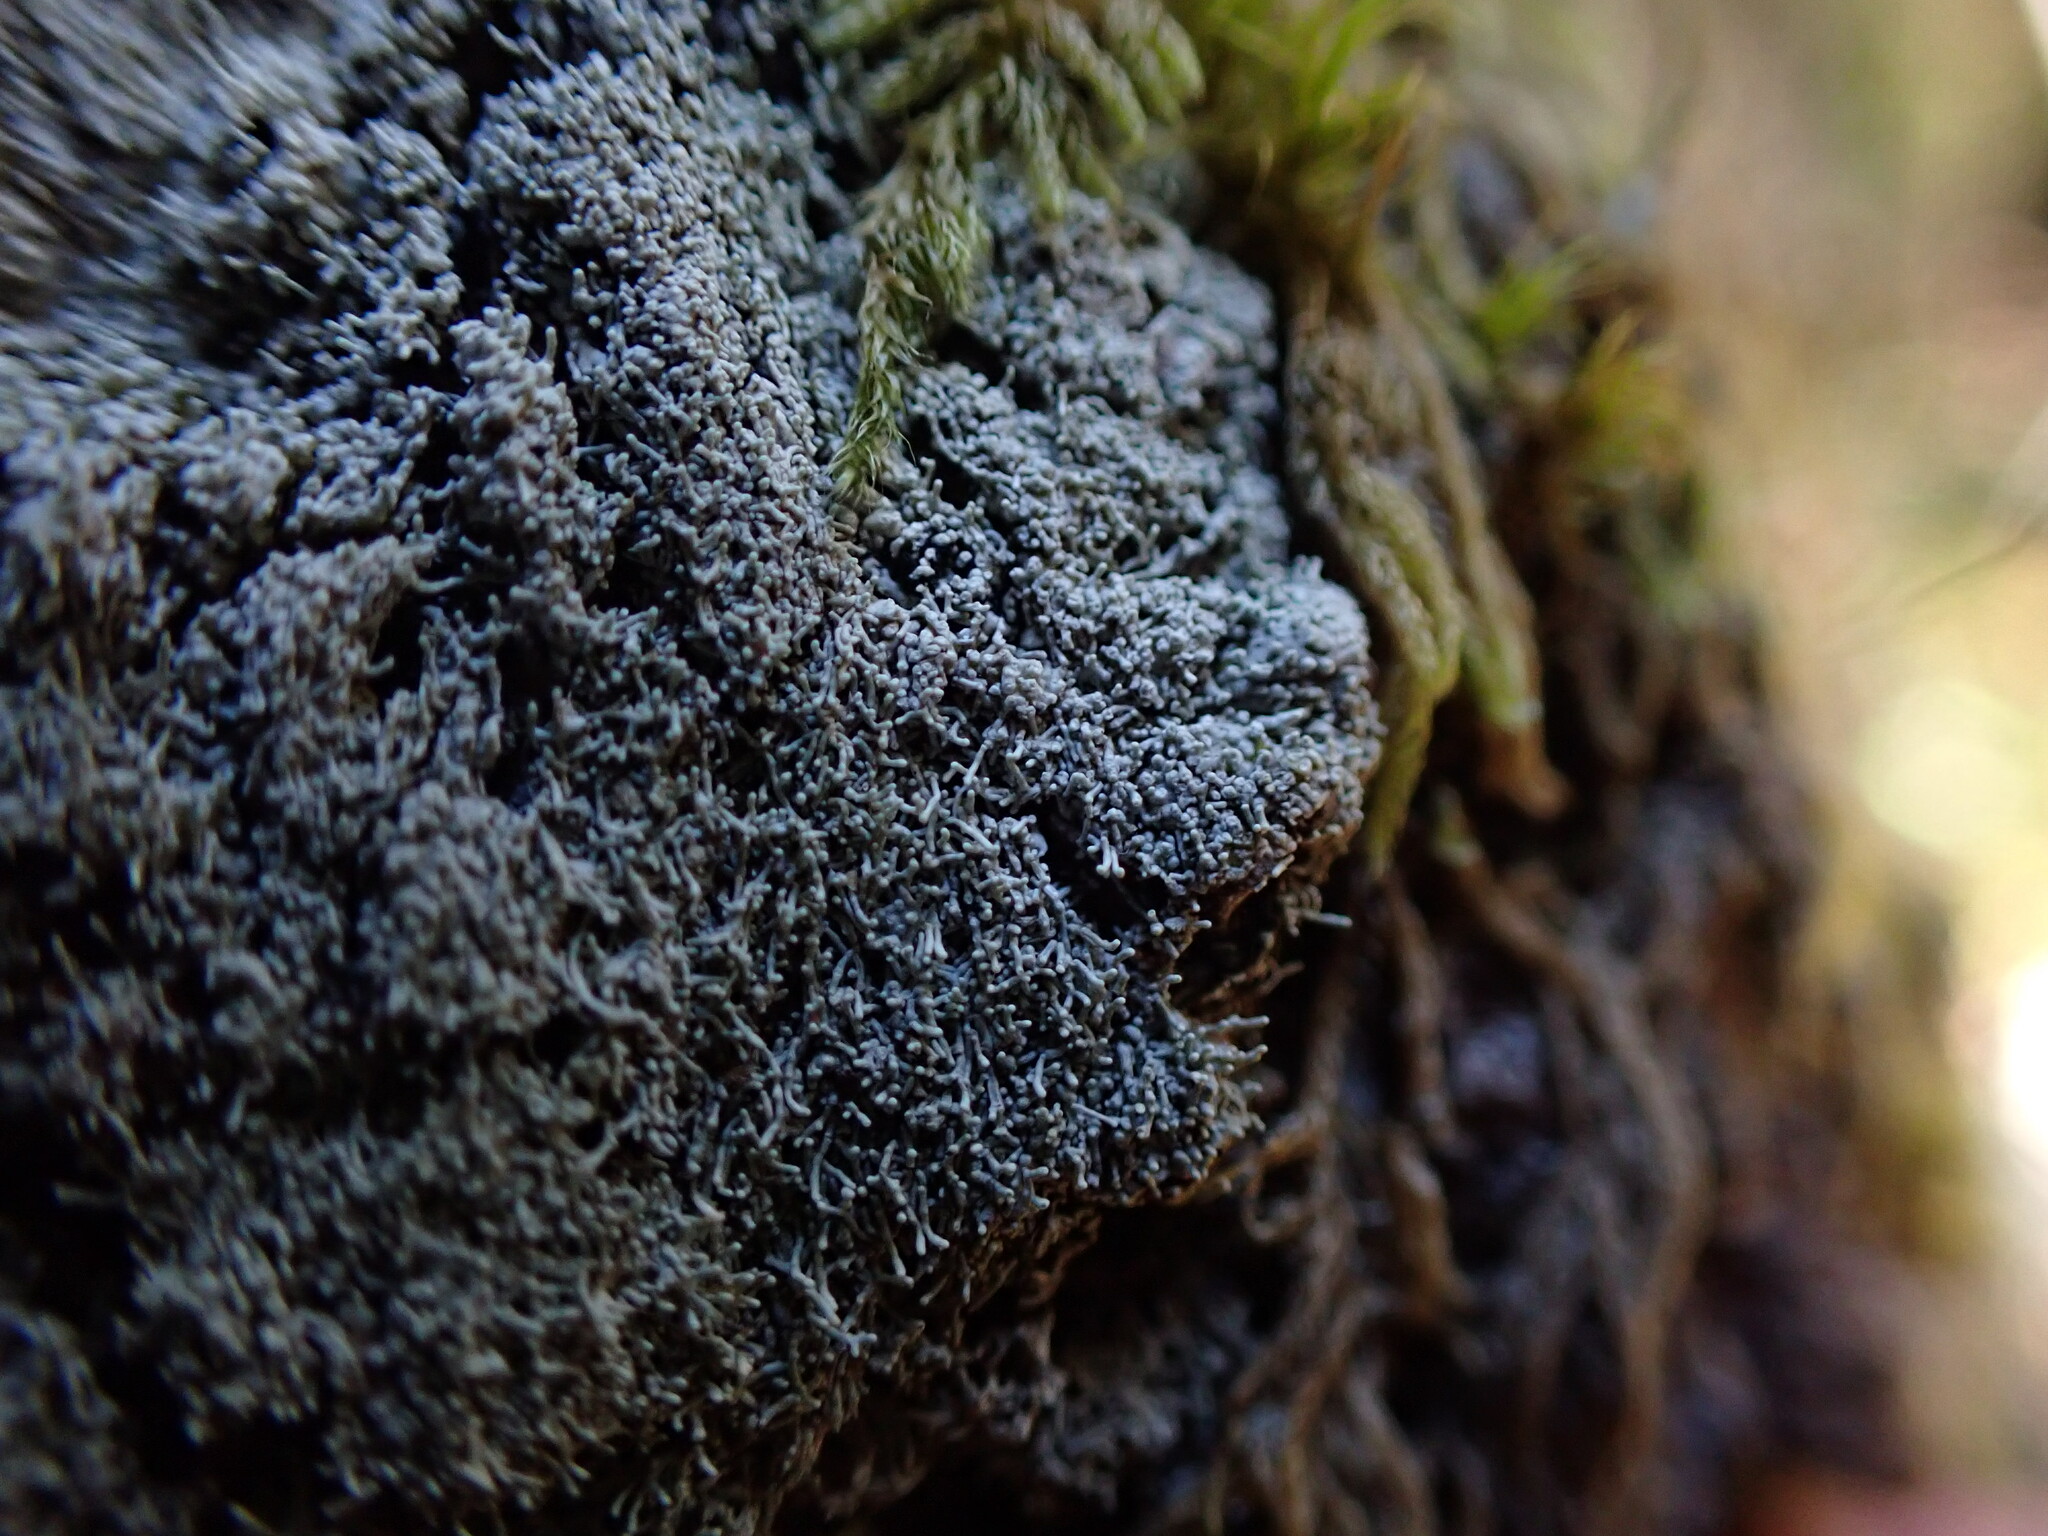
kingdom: Fungi
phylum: Ascomycota
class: Lecanoromycetes
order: Pertusariales
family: Pertusariaceae
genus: Loxosporopsis
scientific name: Loxosporopsis corallifera
